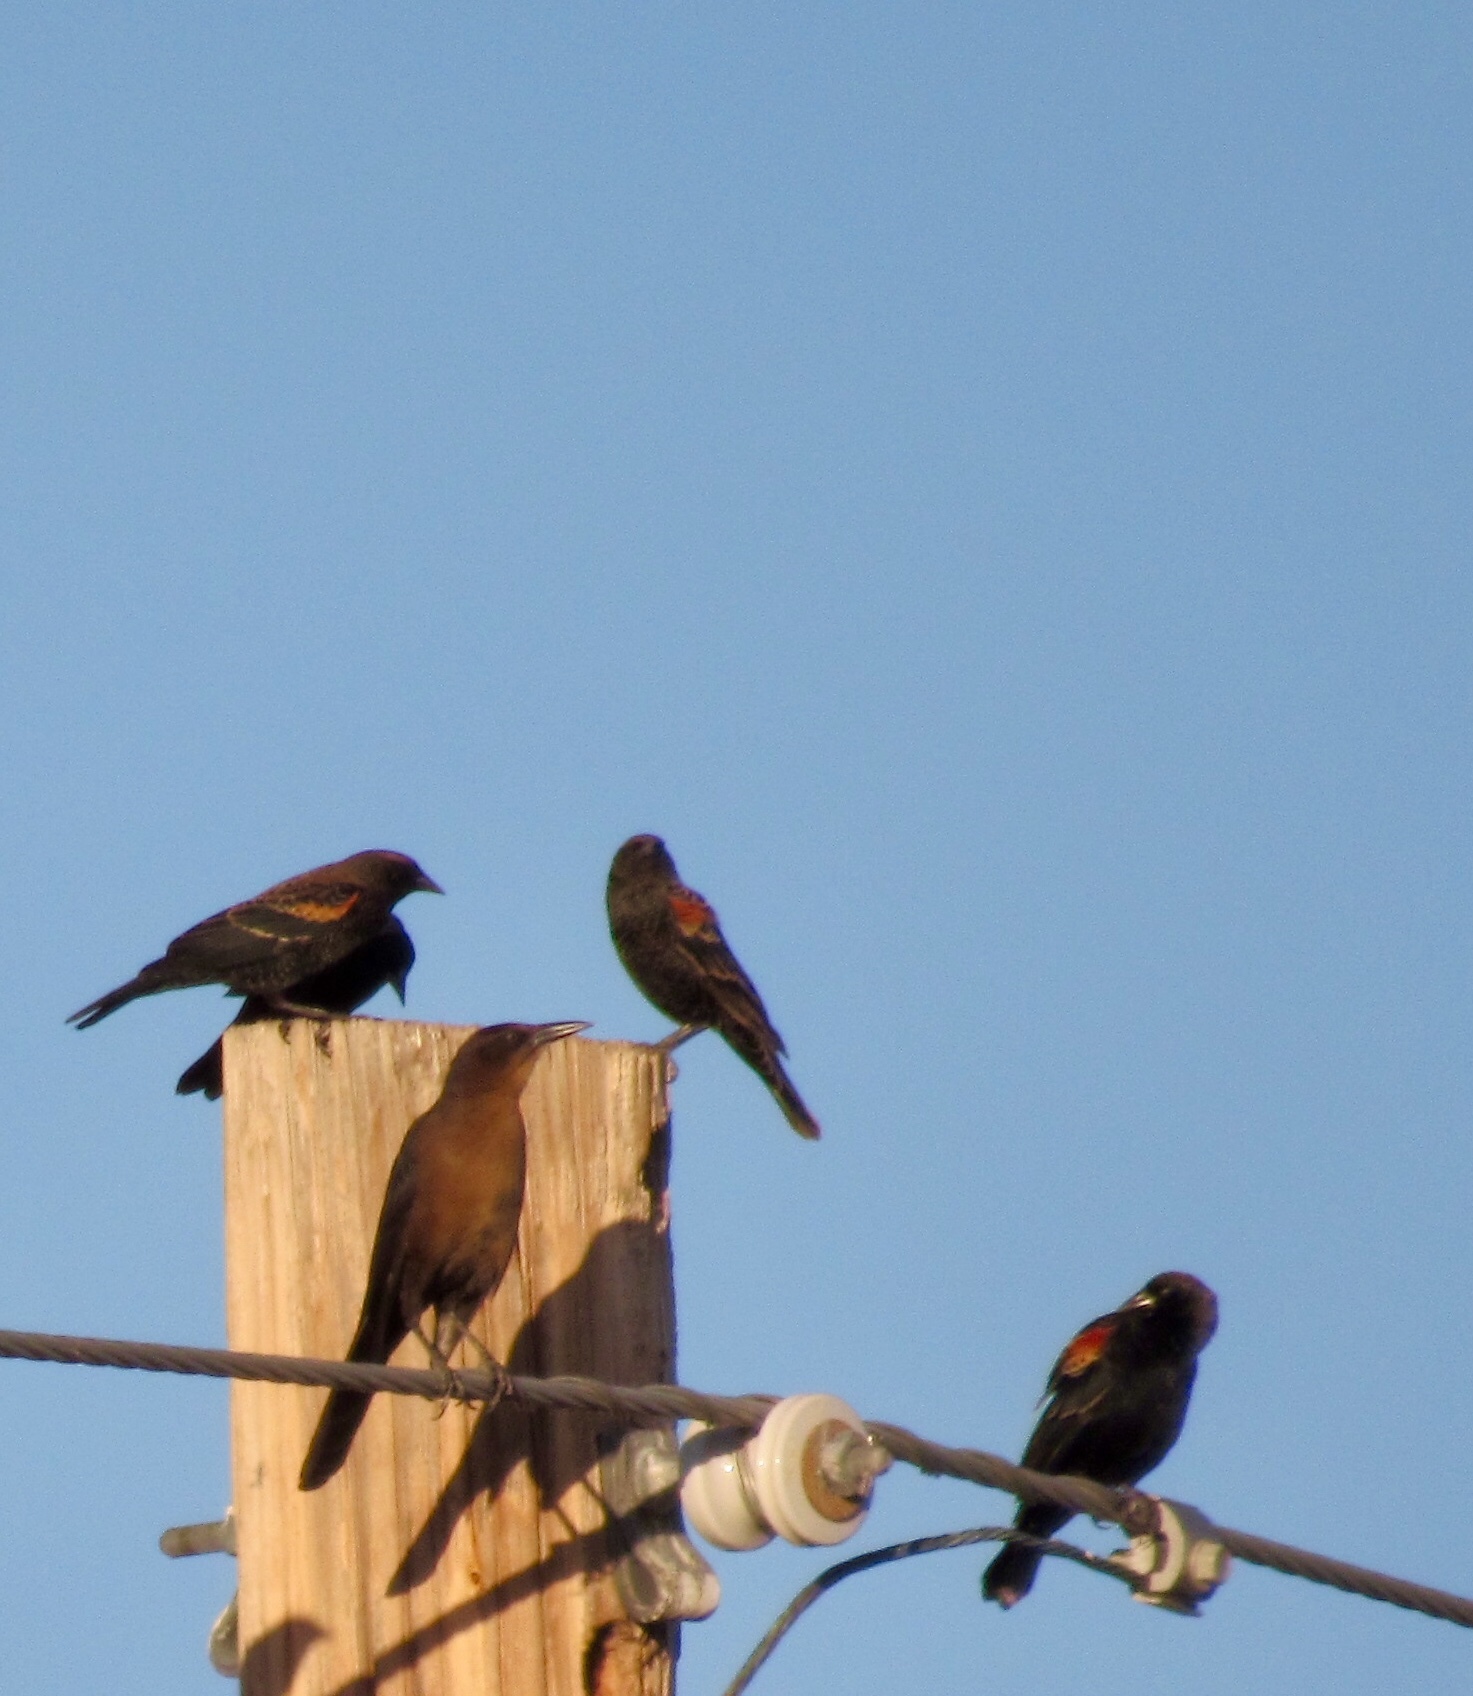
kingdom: Animalia
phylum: Chordata
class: Aves
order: Passeriformes
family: Icteridae
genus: Agelaius
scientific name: Agelaius phoeniceus
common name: Red-winged blackbird
